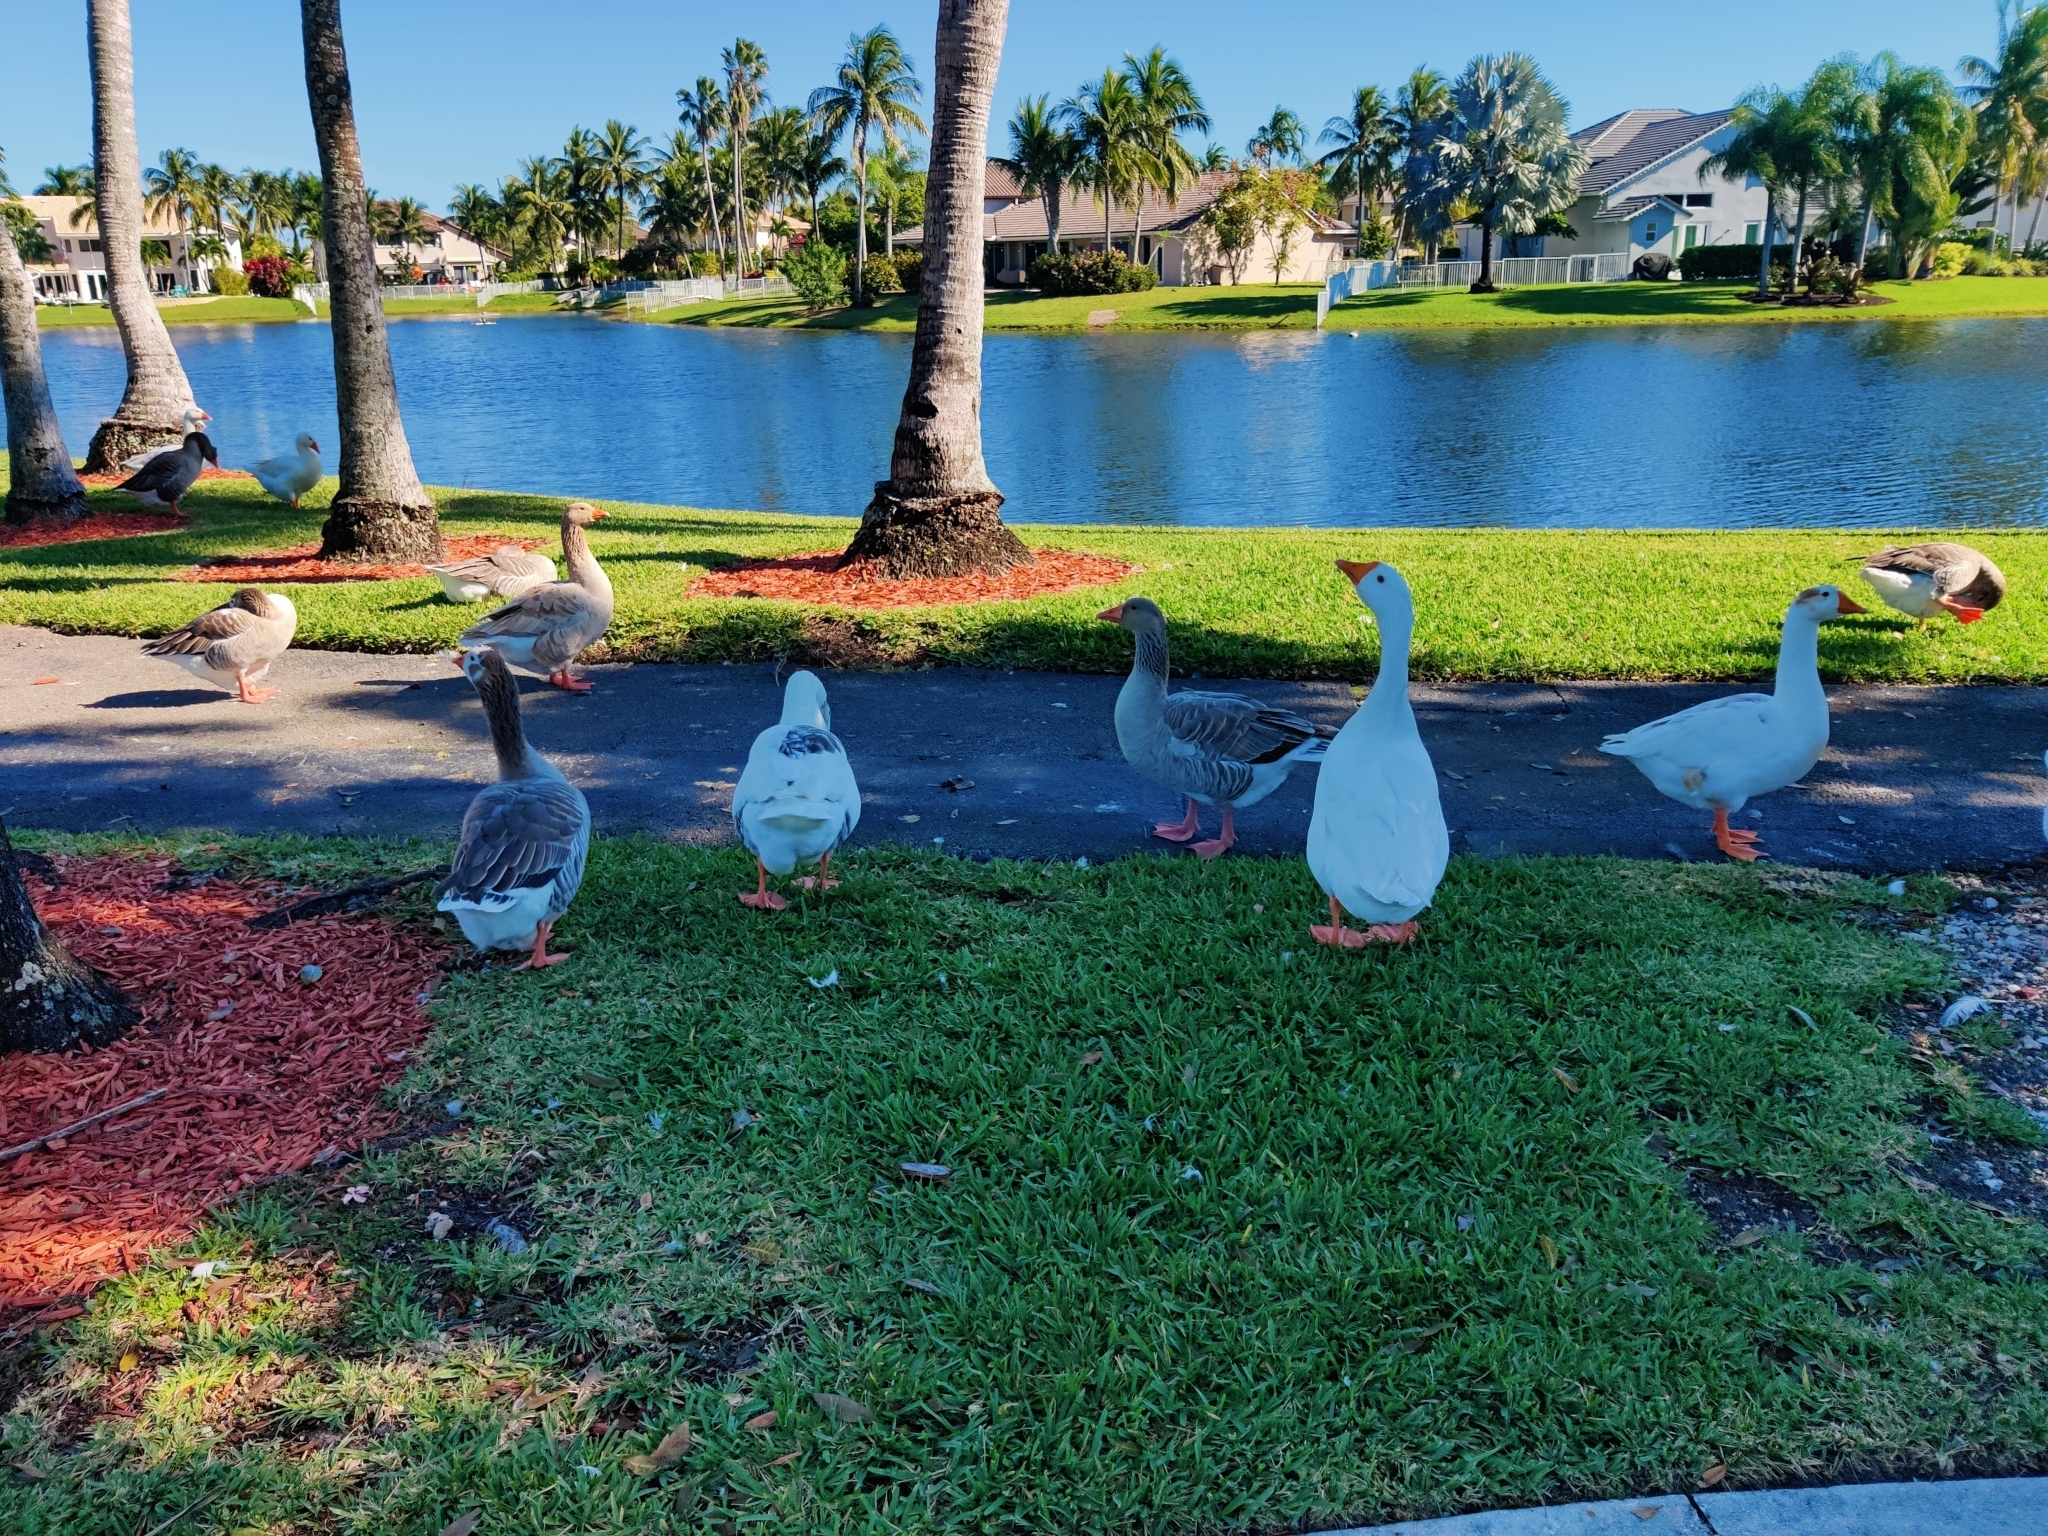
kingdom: Animalia
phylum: Chordata
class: Aves
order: Anseriformes
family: Anatidae
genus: Anser
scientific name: Anser
